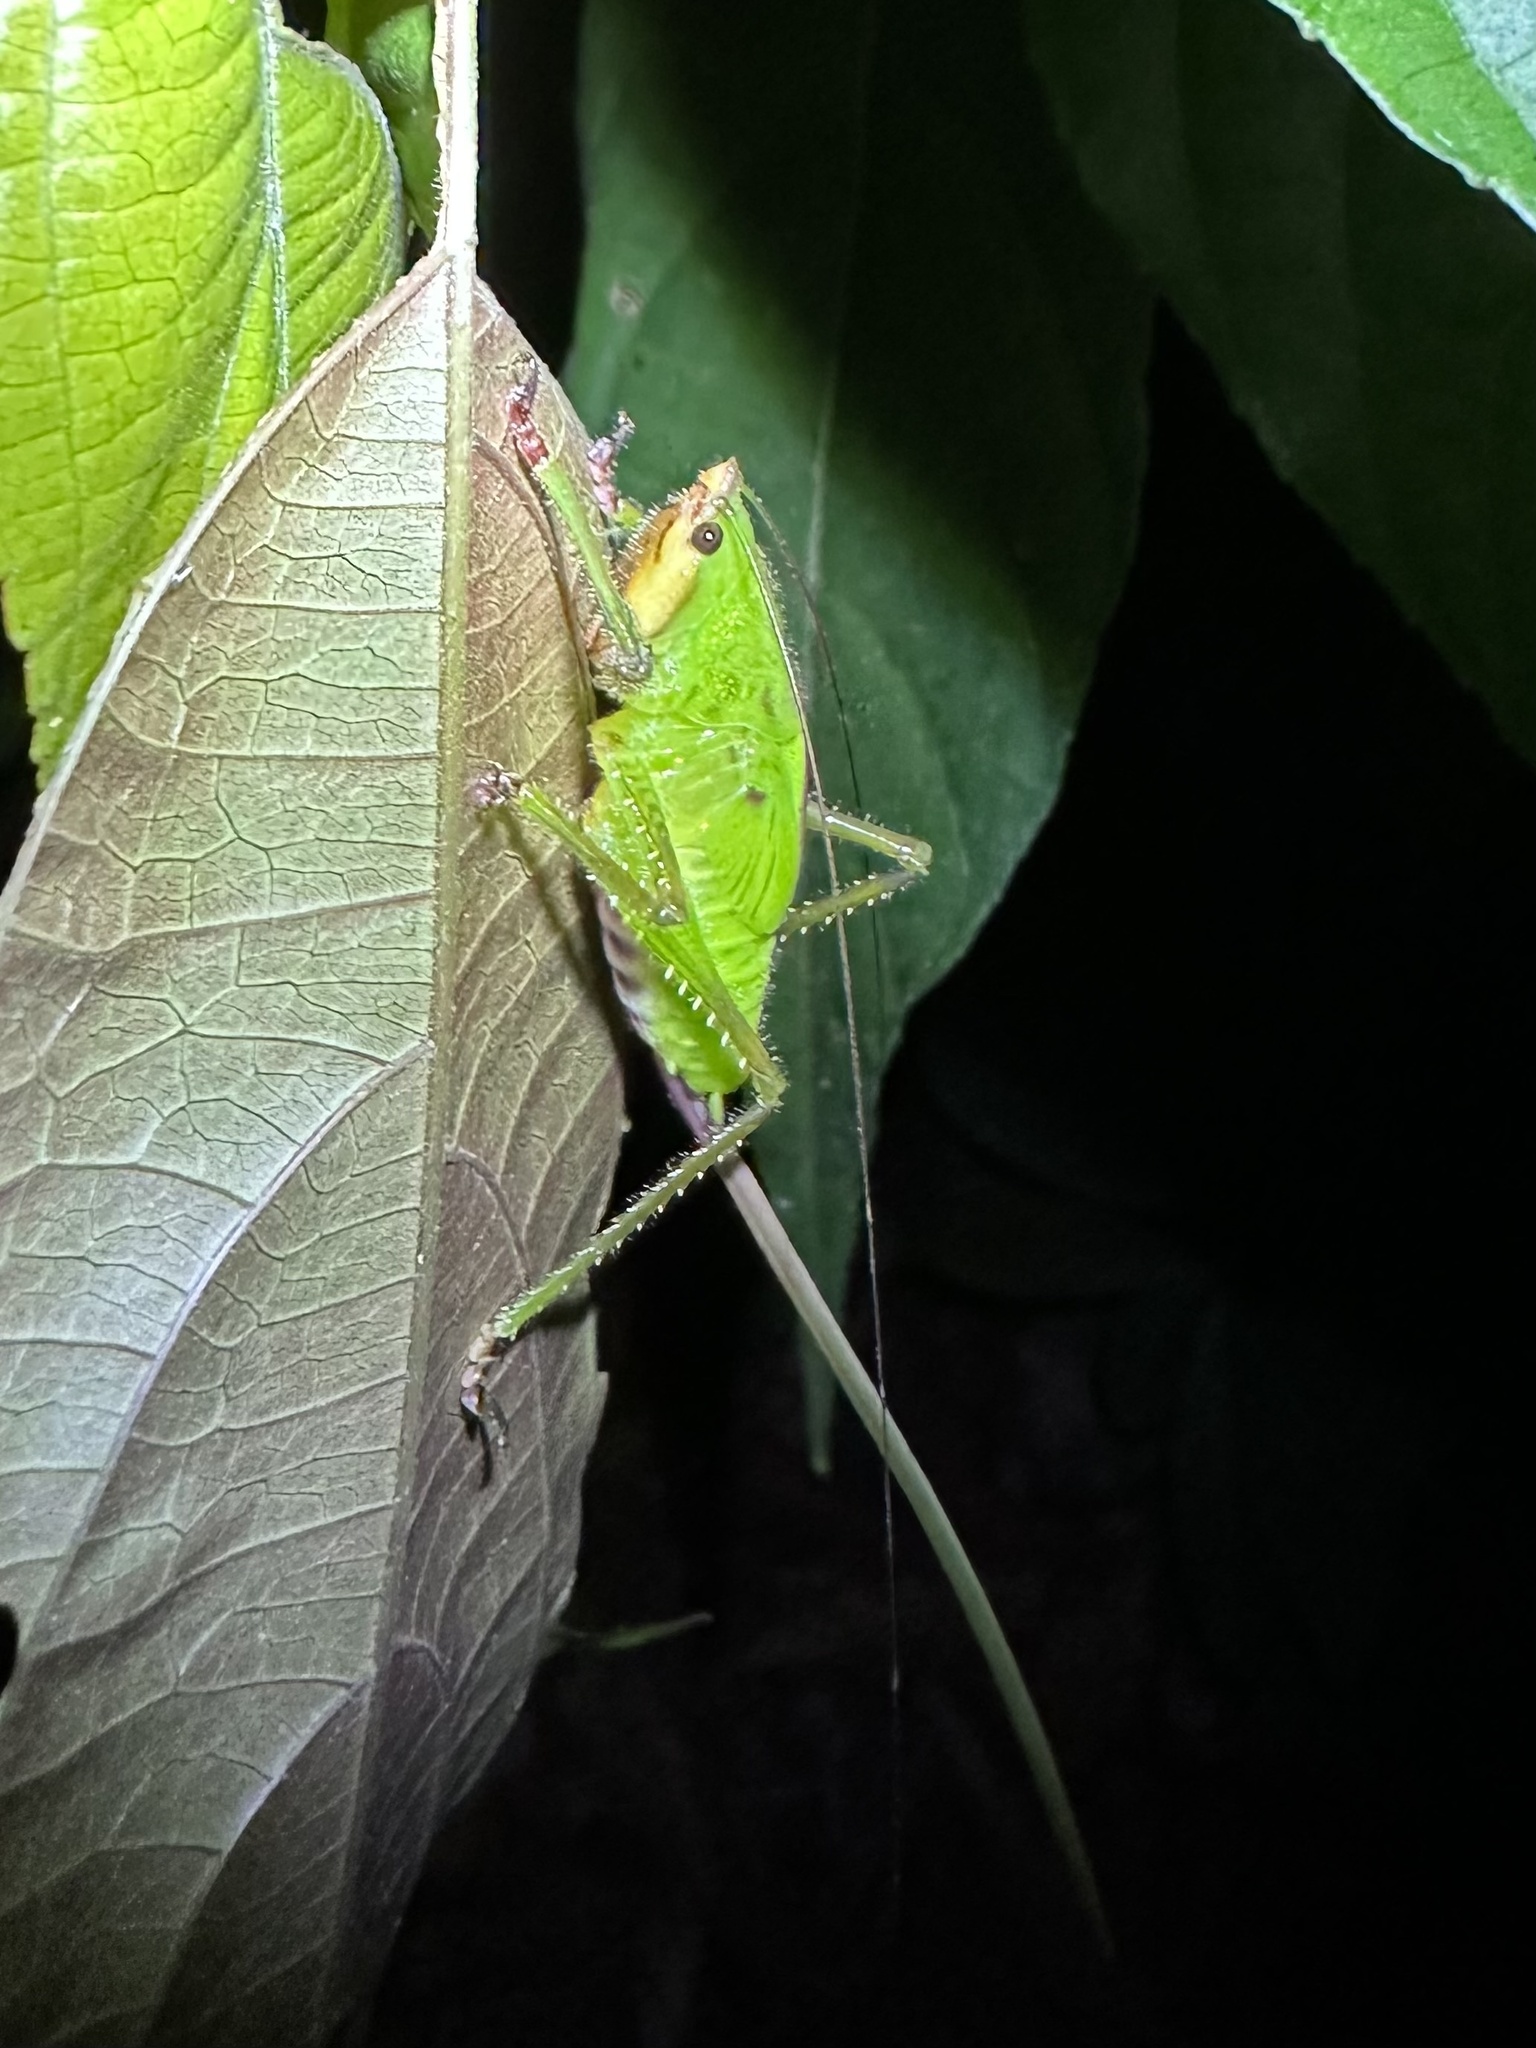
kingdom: Animalia
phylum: Arthropoda
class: Insecta
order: Orthoptera
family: Tettigoniidae
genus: Copiphora
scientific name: Copiphora brevirostris
